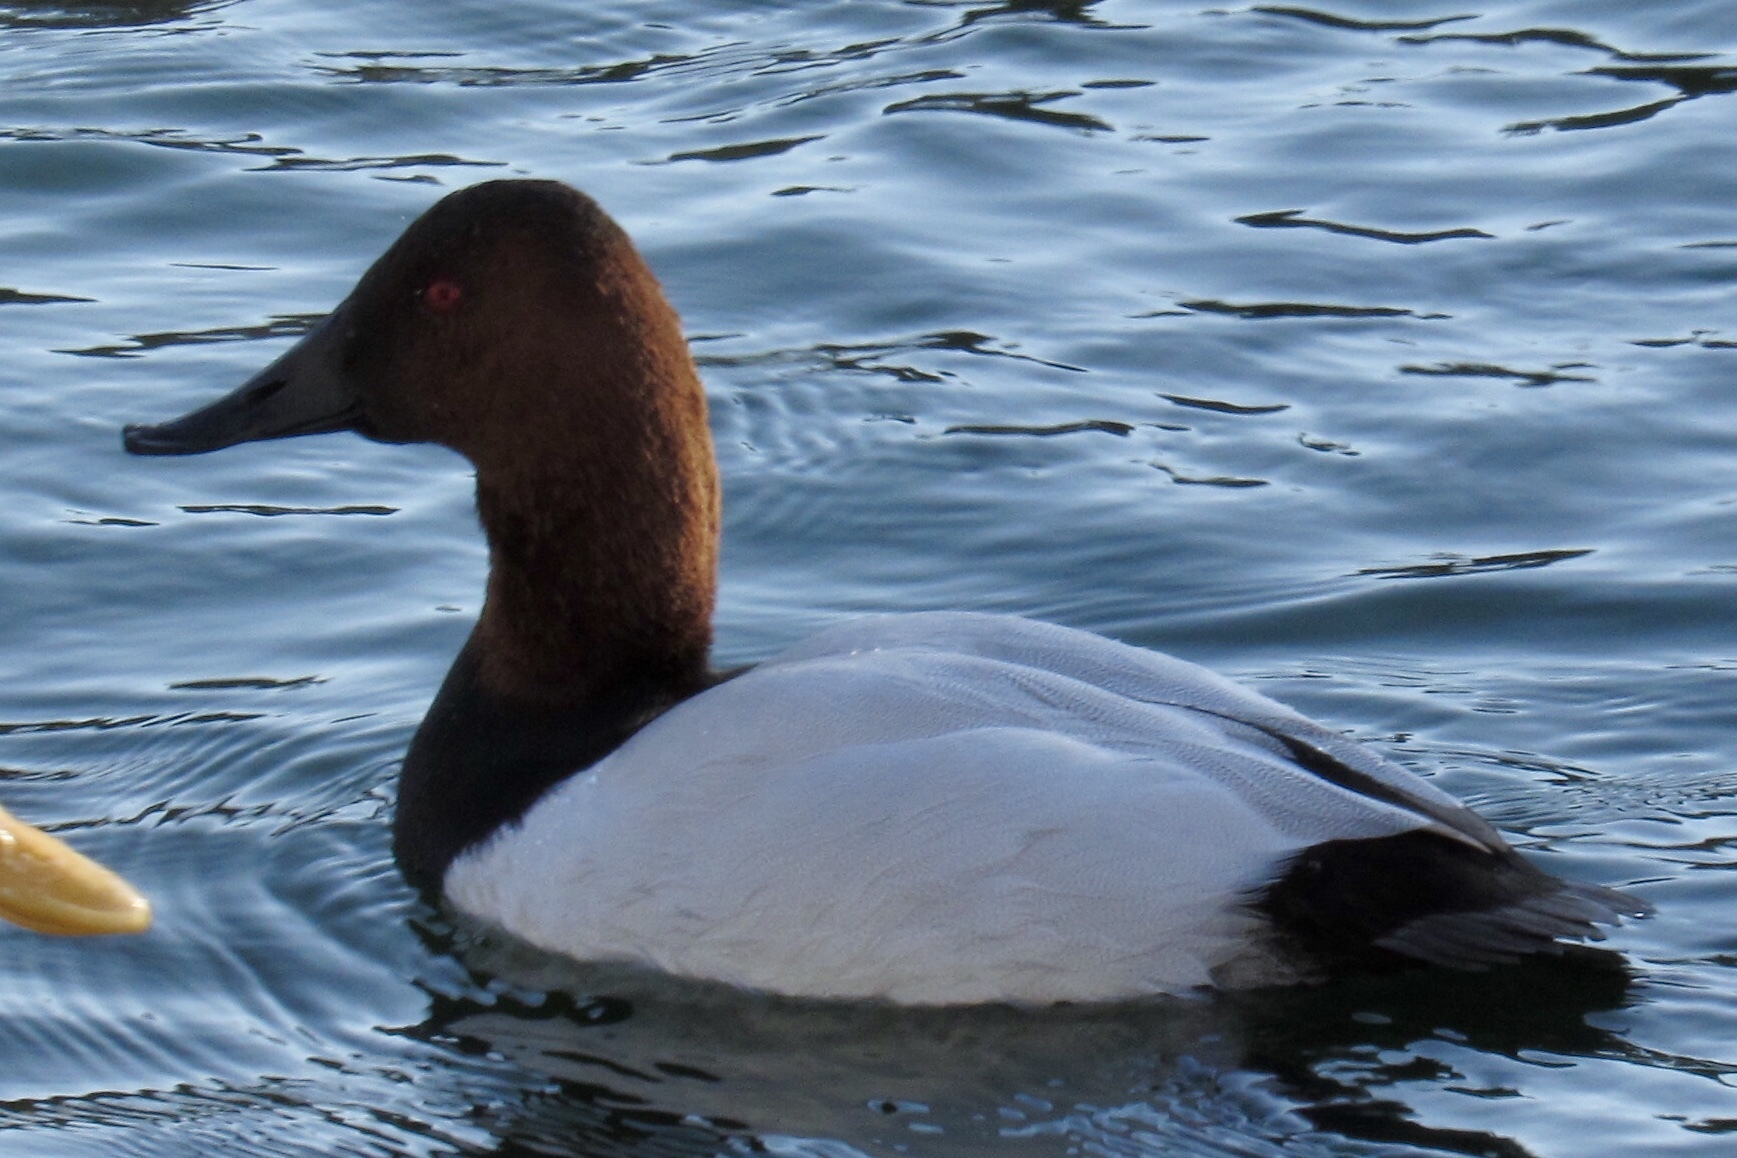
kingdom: Animalia
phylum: Chordata
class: Aves
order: Anseriformes
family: Anatidae
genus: Aythya
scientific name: Aythya valisineria
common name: Canvasback
